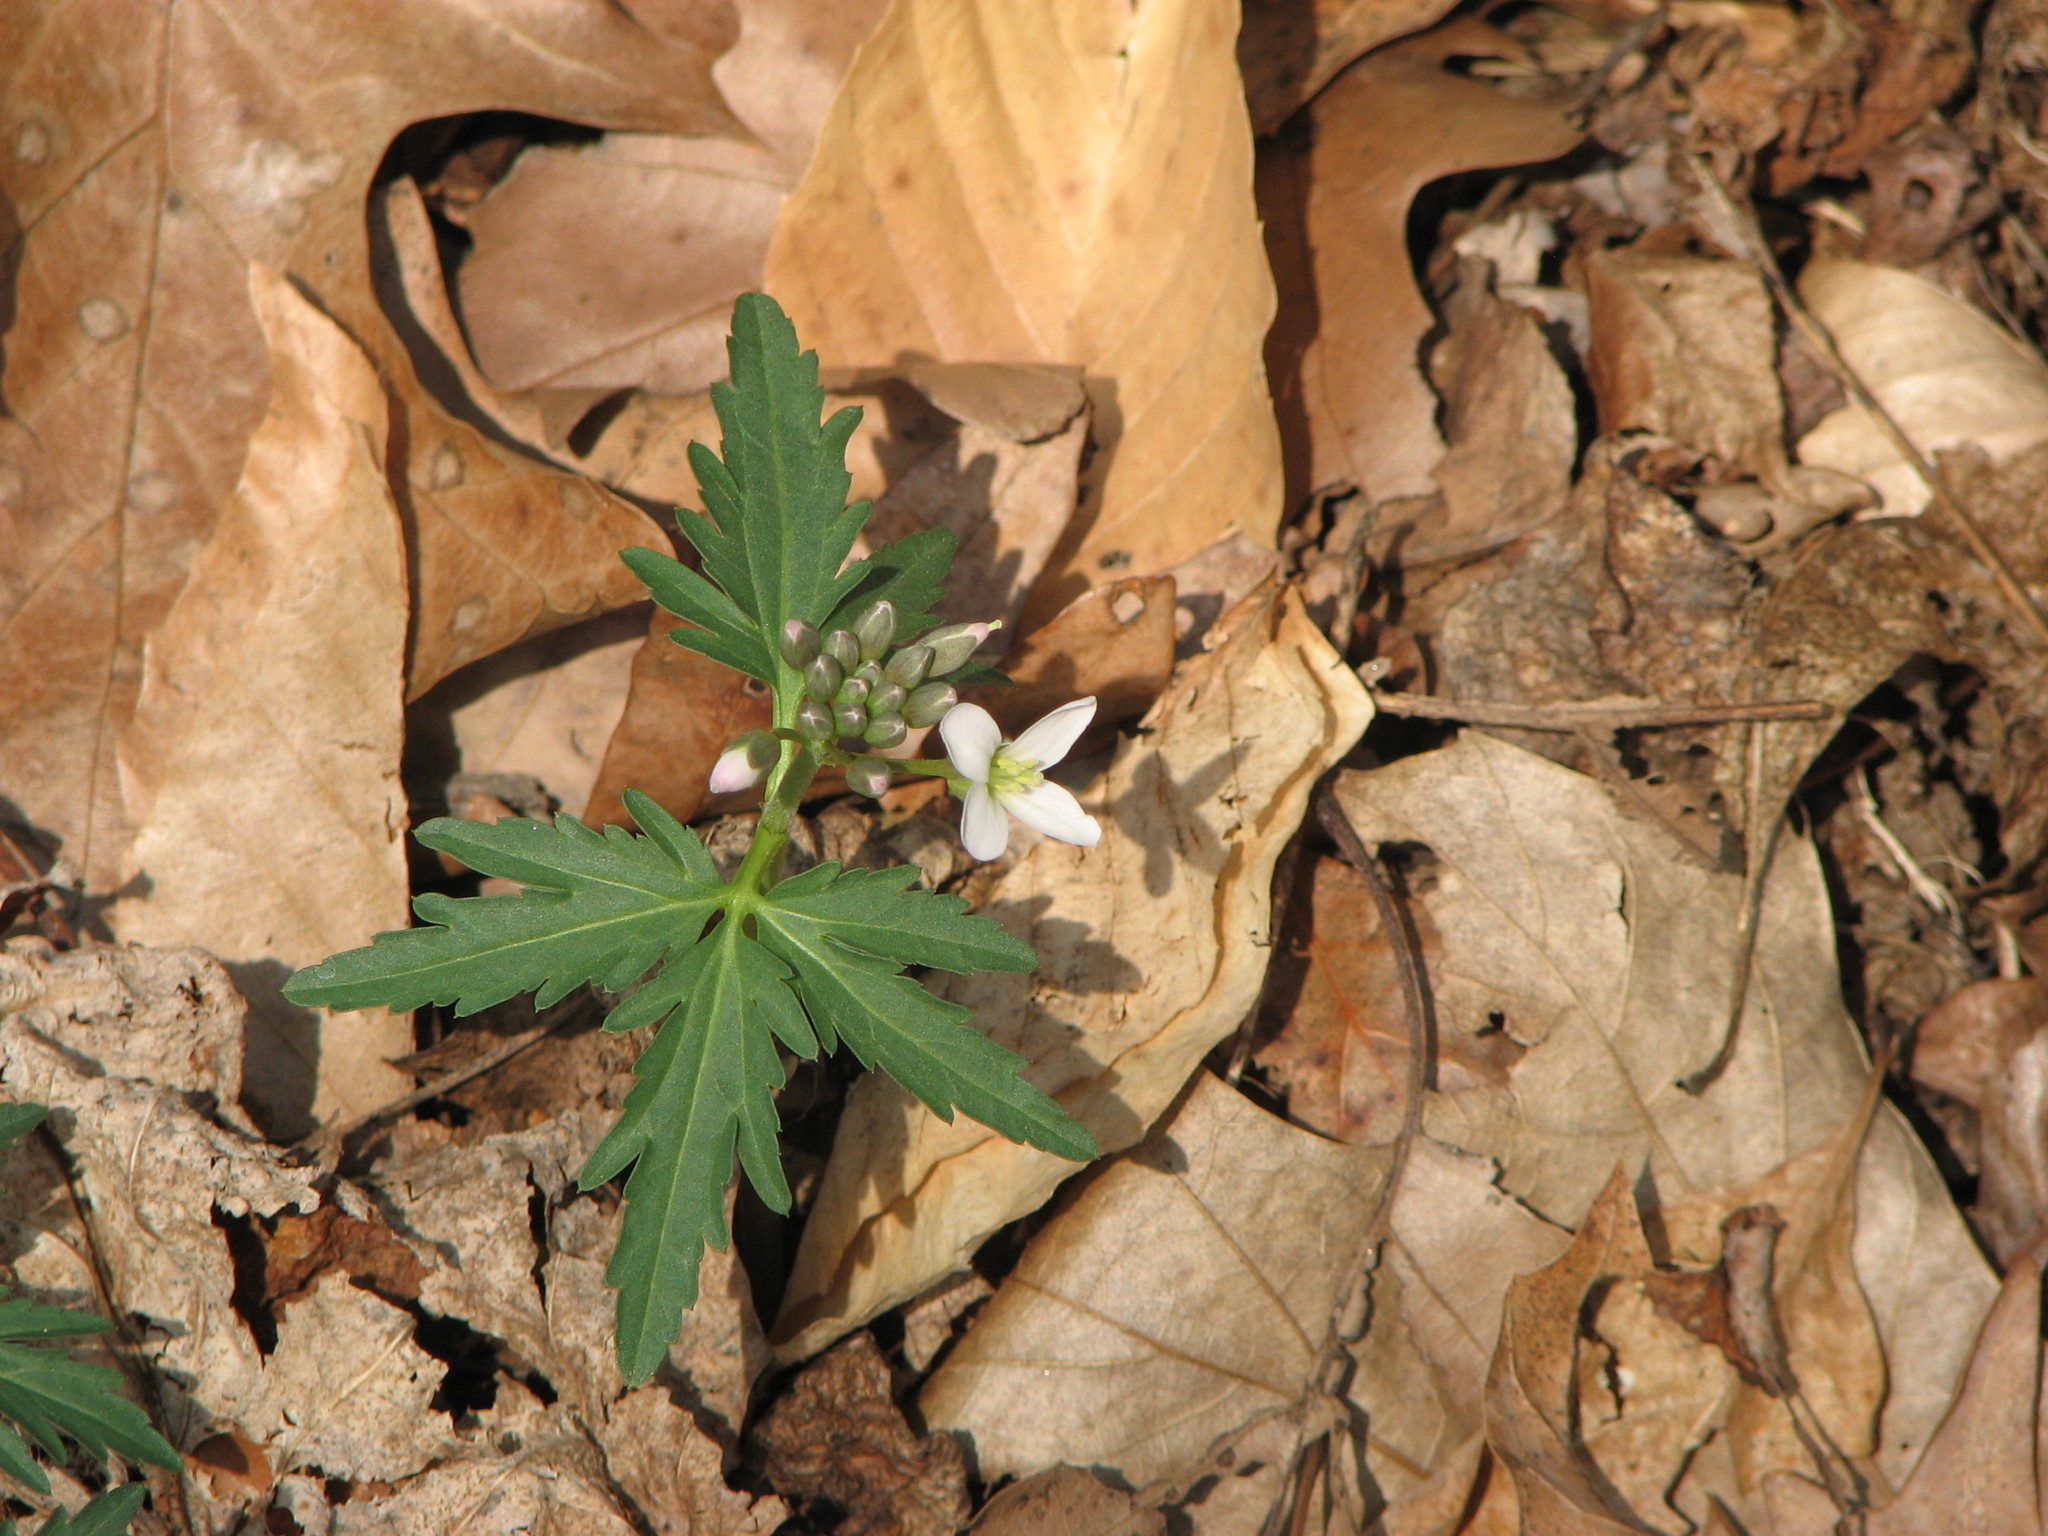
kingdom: Plantae
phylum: Tracheophyta
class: Magnoliopsida
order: Brassicales
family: Brassicaceae
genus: Cardamine
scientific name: Cardamine concatenata
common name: Cut-leaf toothcup
